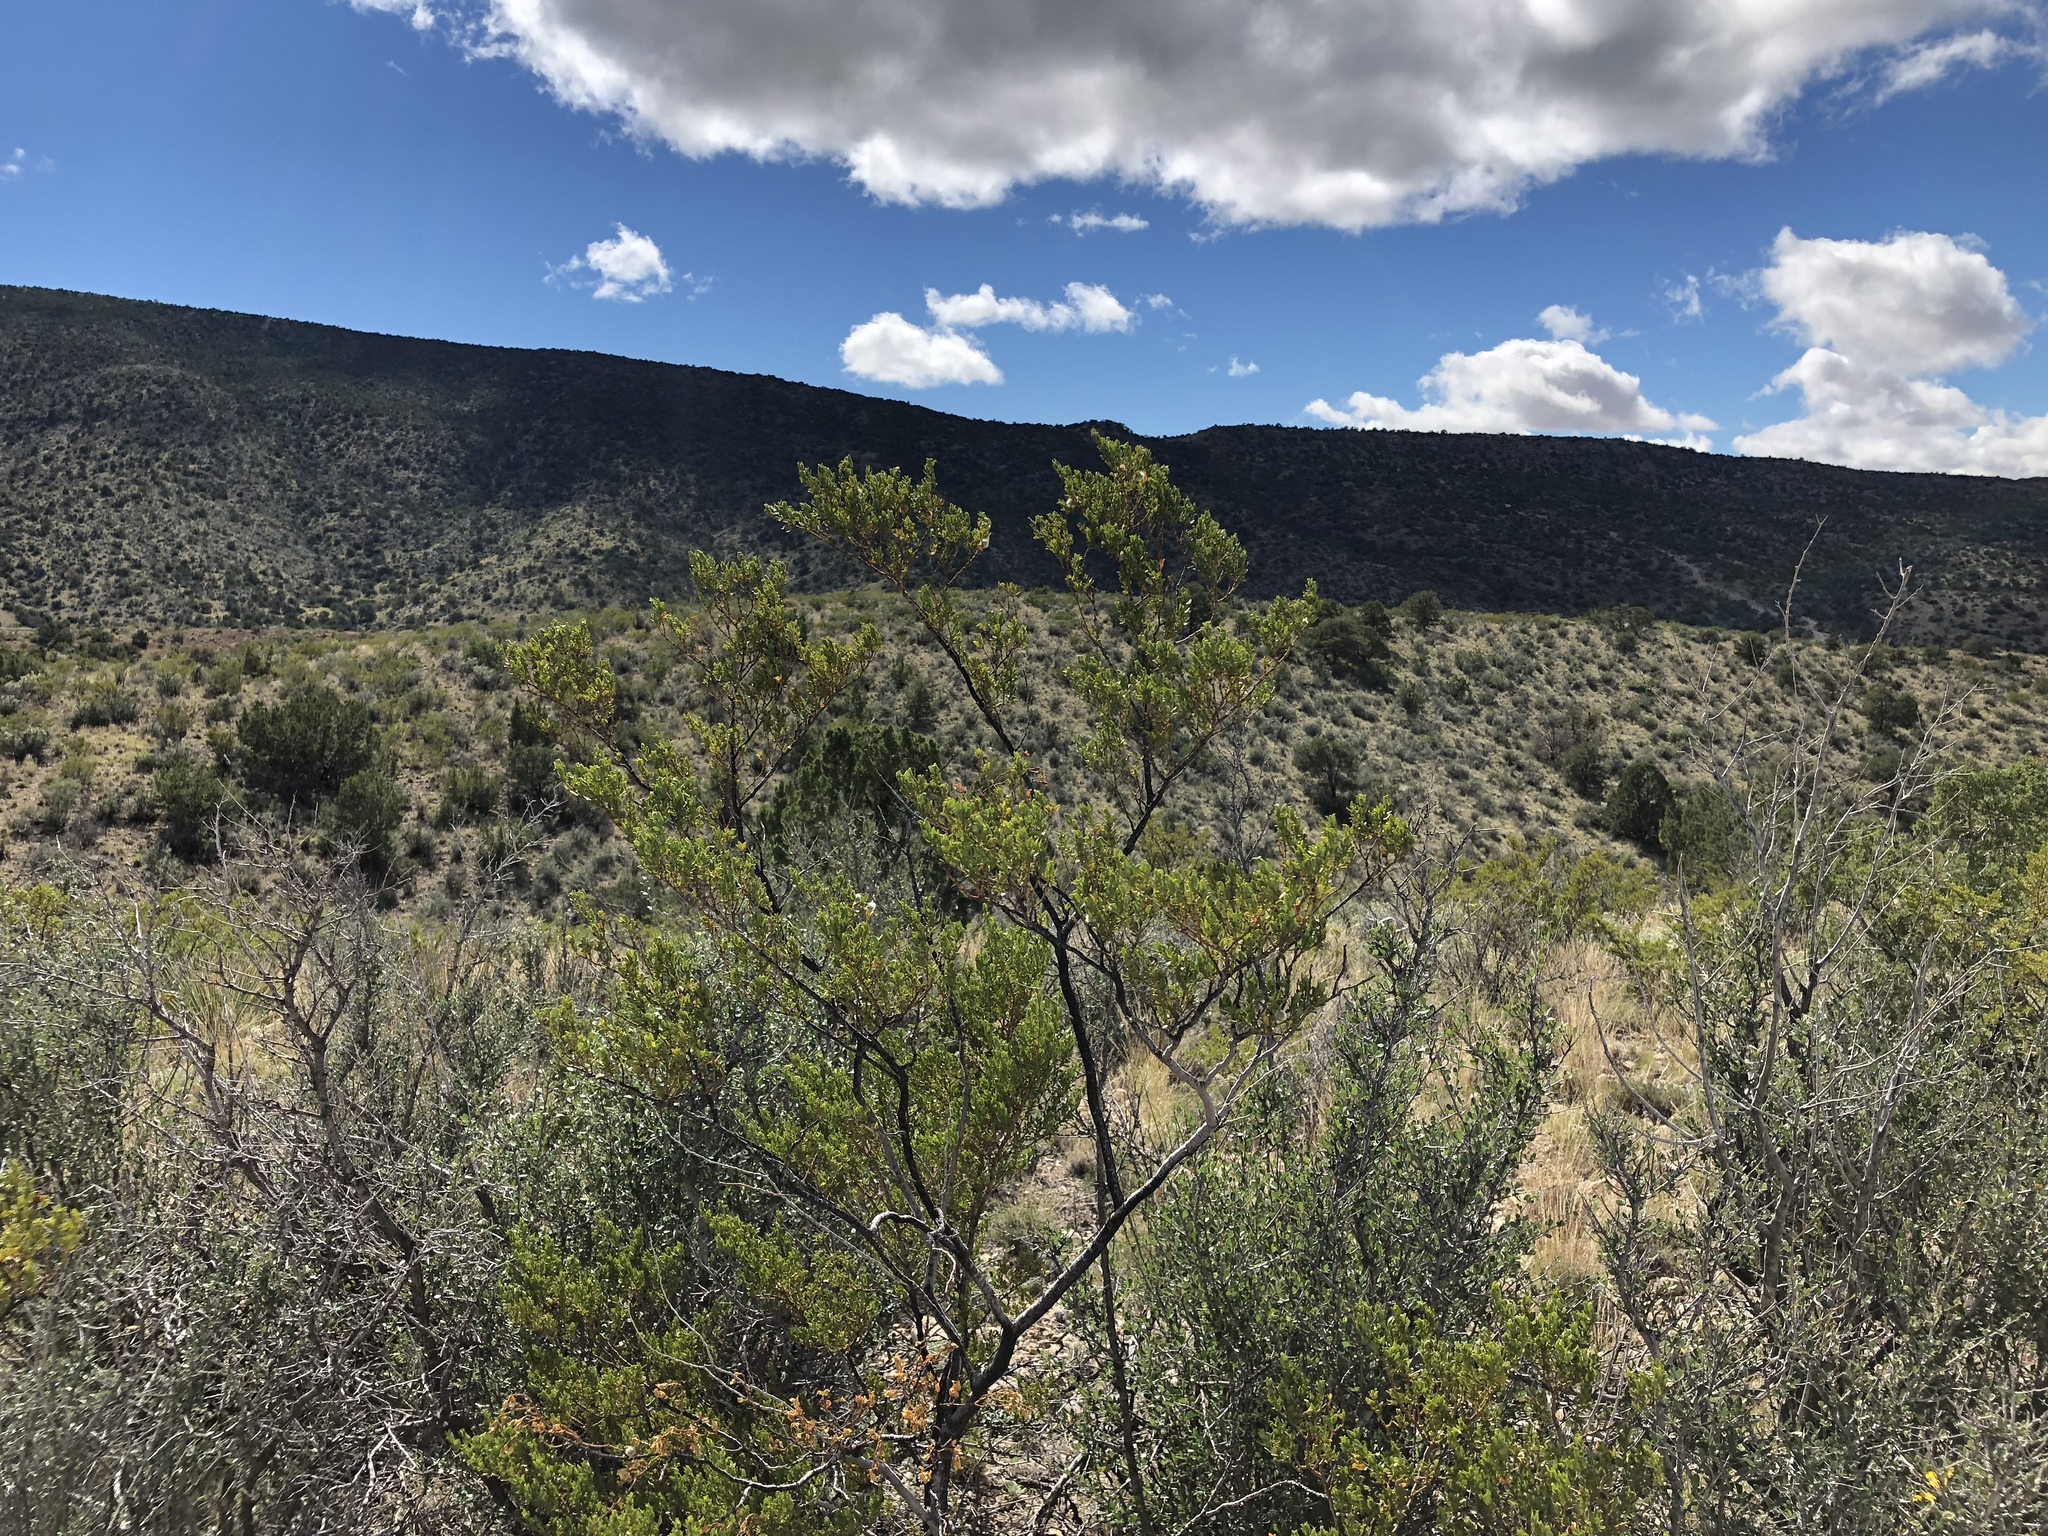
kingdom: Plantae
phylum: Tracheophyta
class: Magnoliopsida
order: Zygophyllales
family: Zygophyllaceae
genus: Larrea
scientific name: Larrea tridentata
